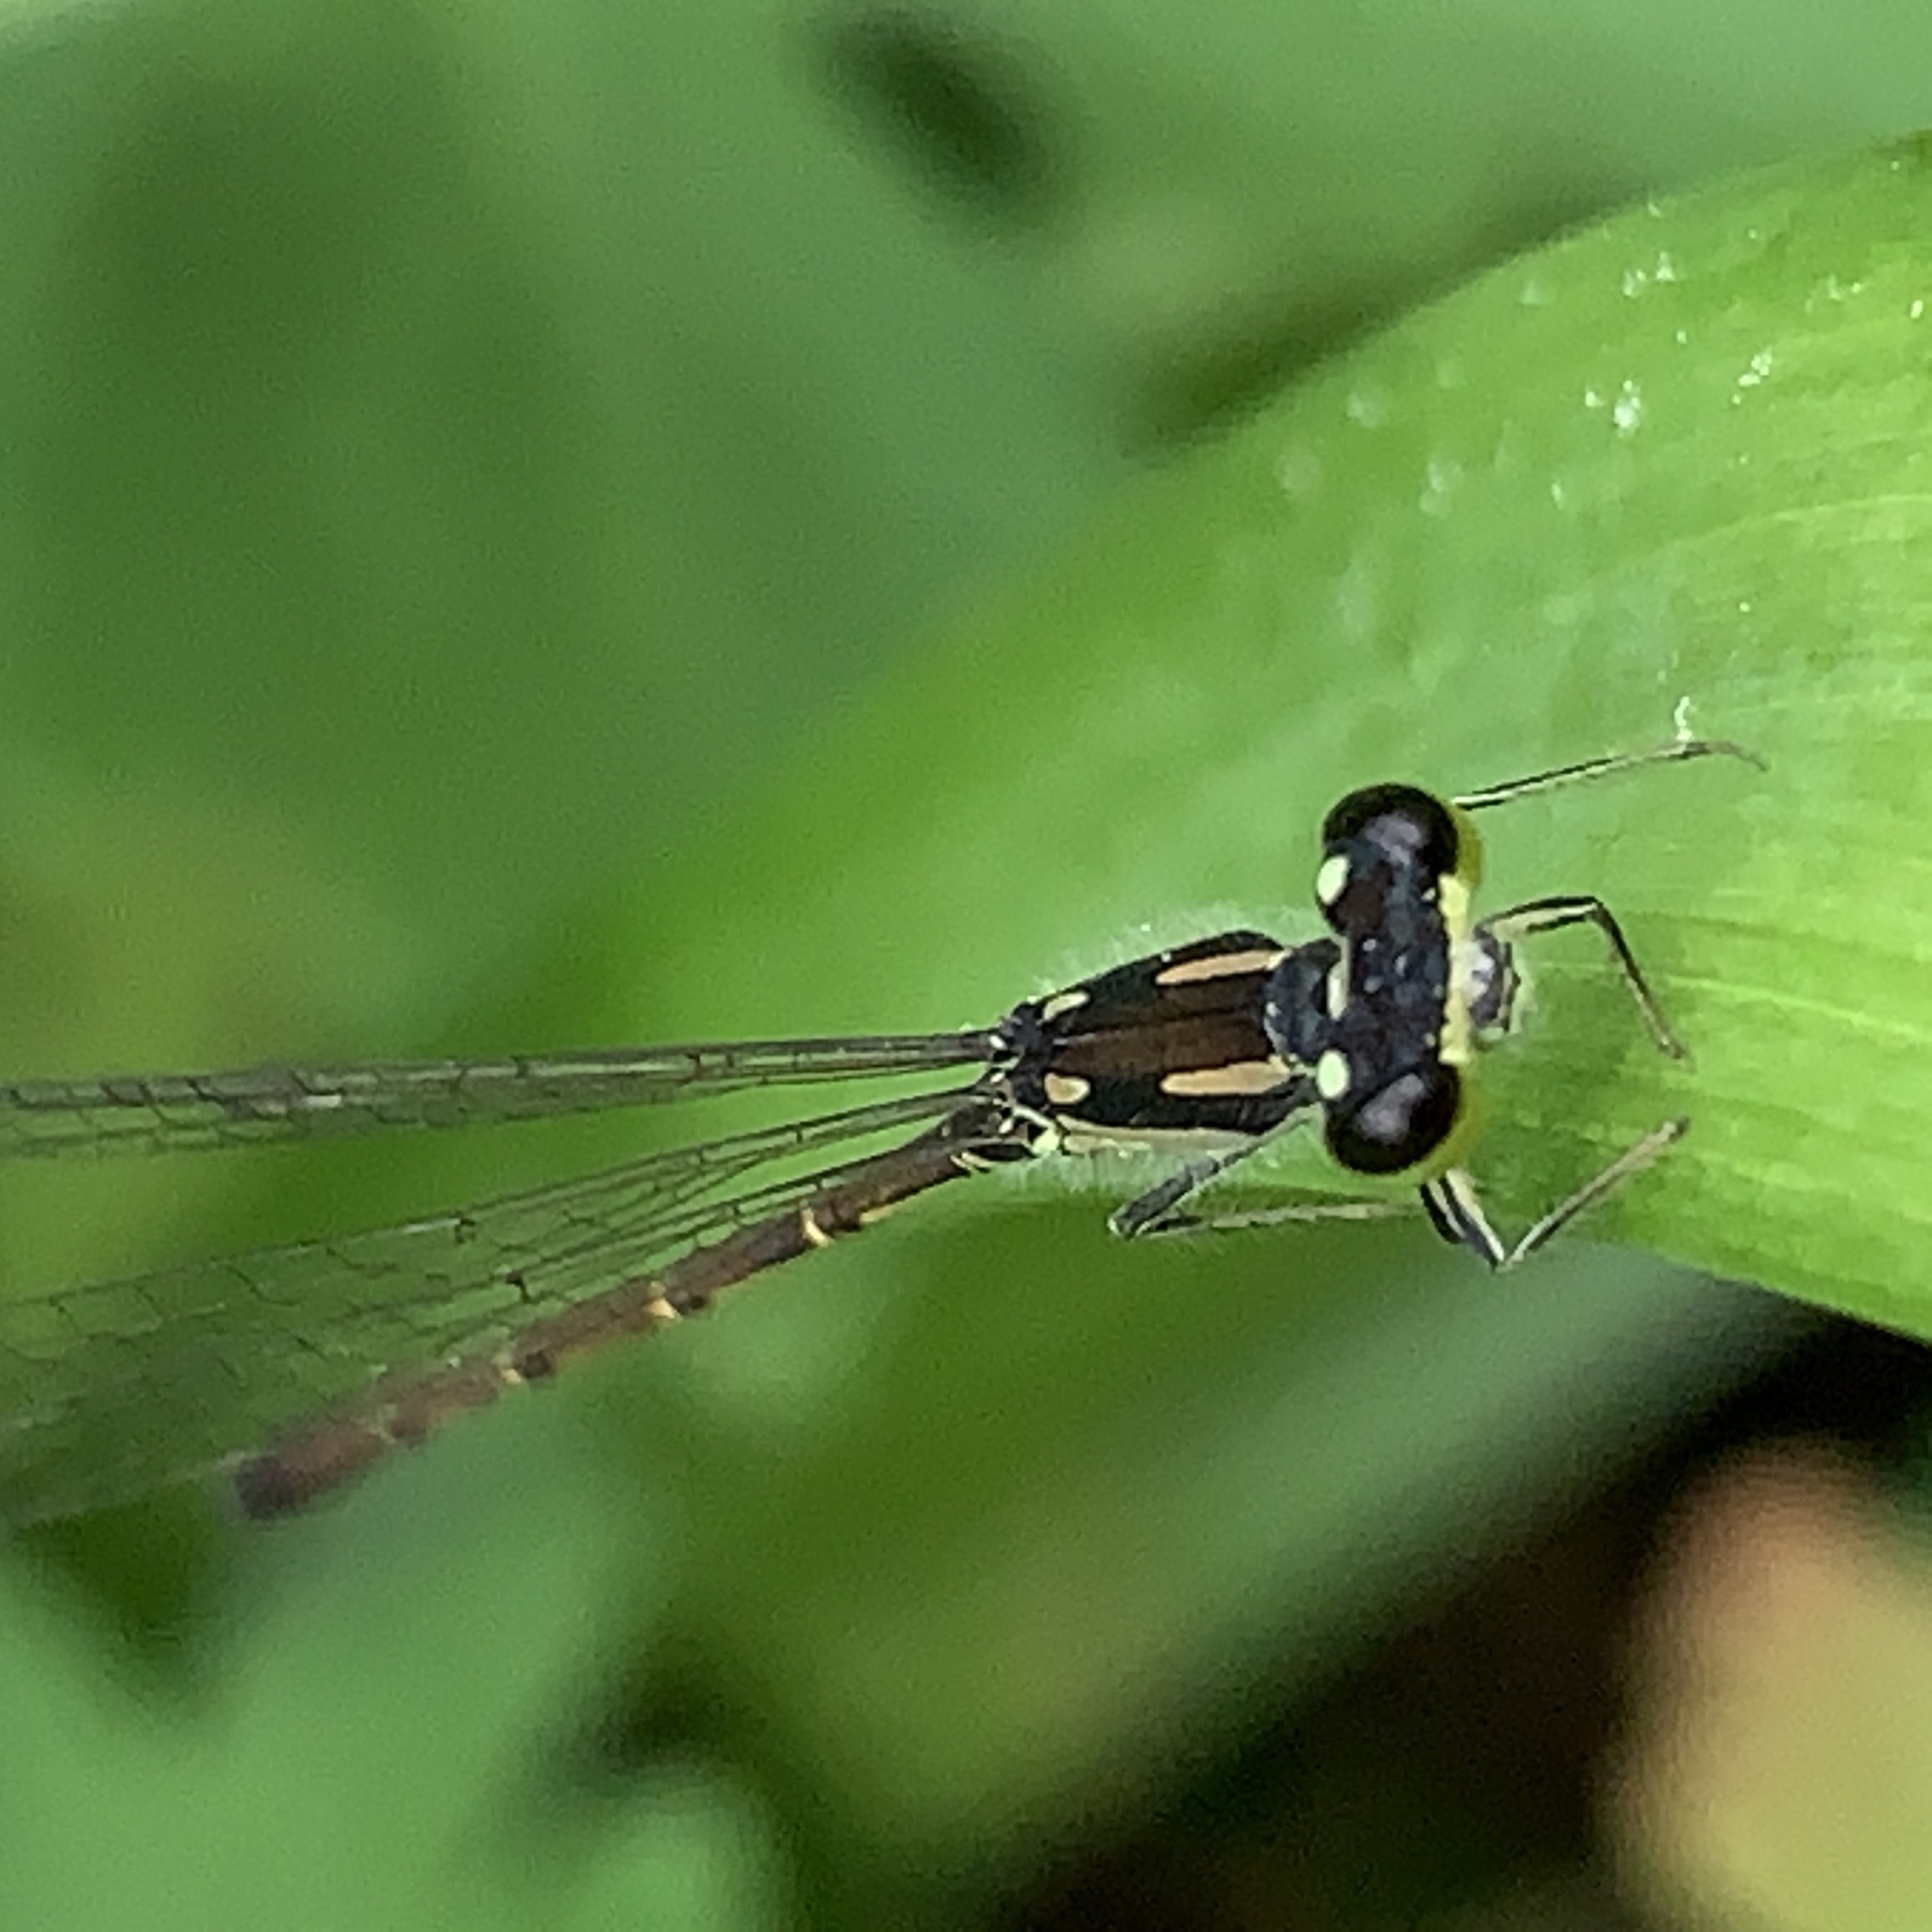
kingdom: Animalia
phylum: Arthropoda
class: Insecta
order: Odonata
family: Coenagrionidae
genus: Ischnura
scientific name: Ischnura posita
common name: Fragile forktail
